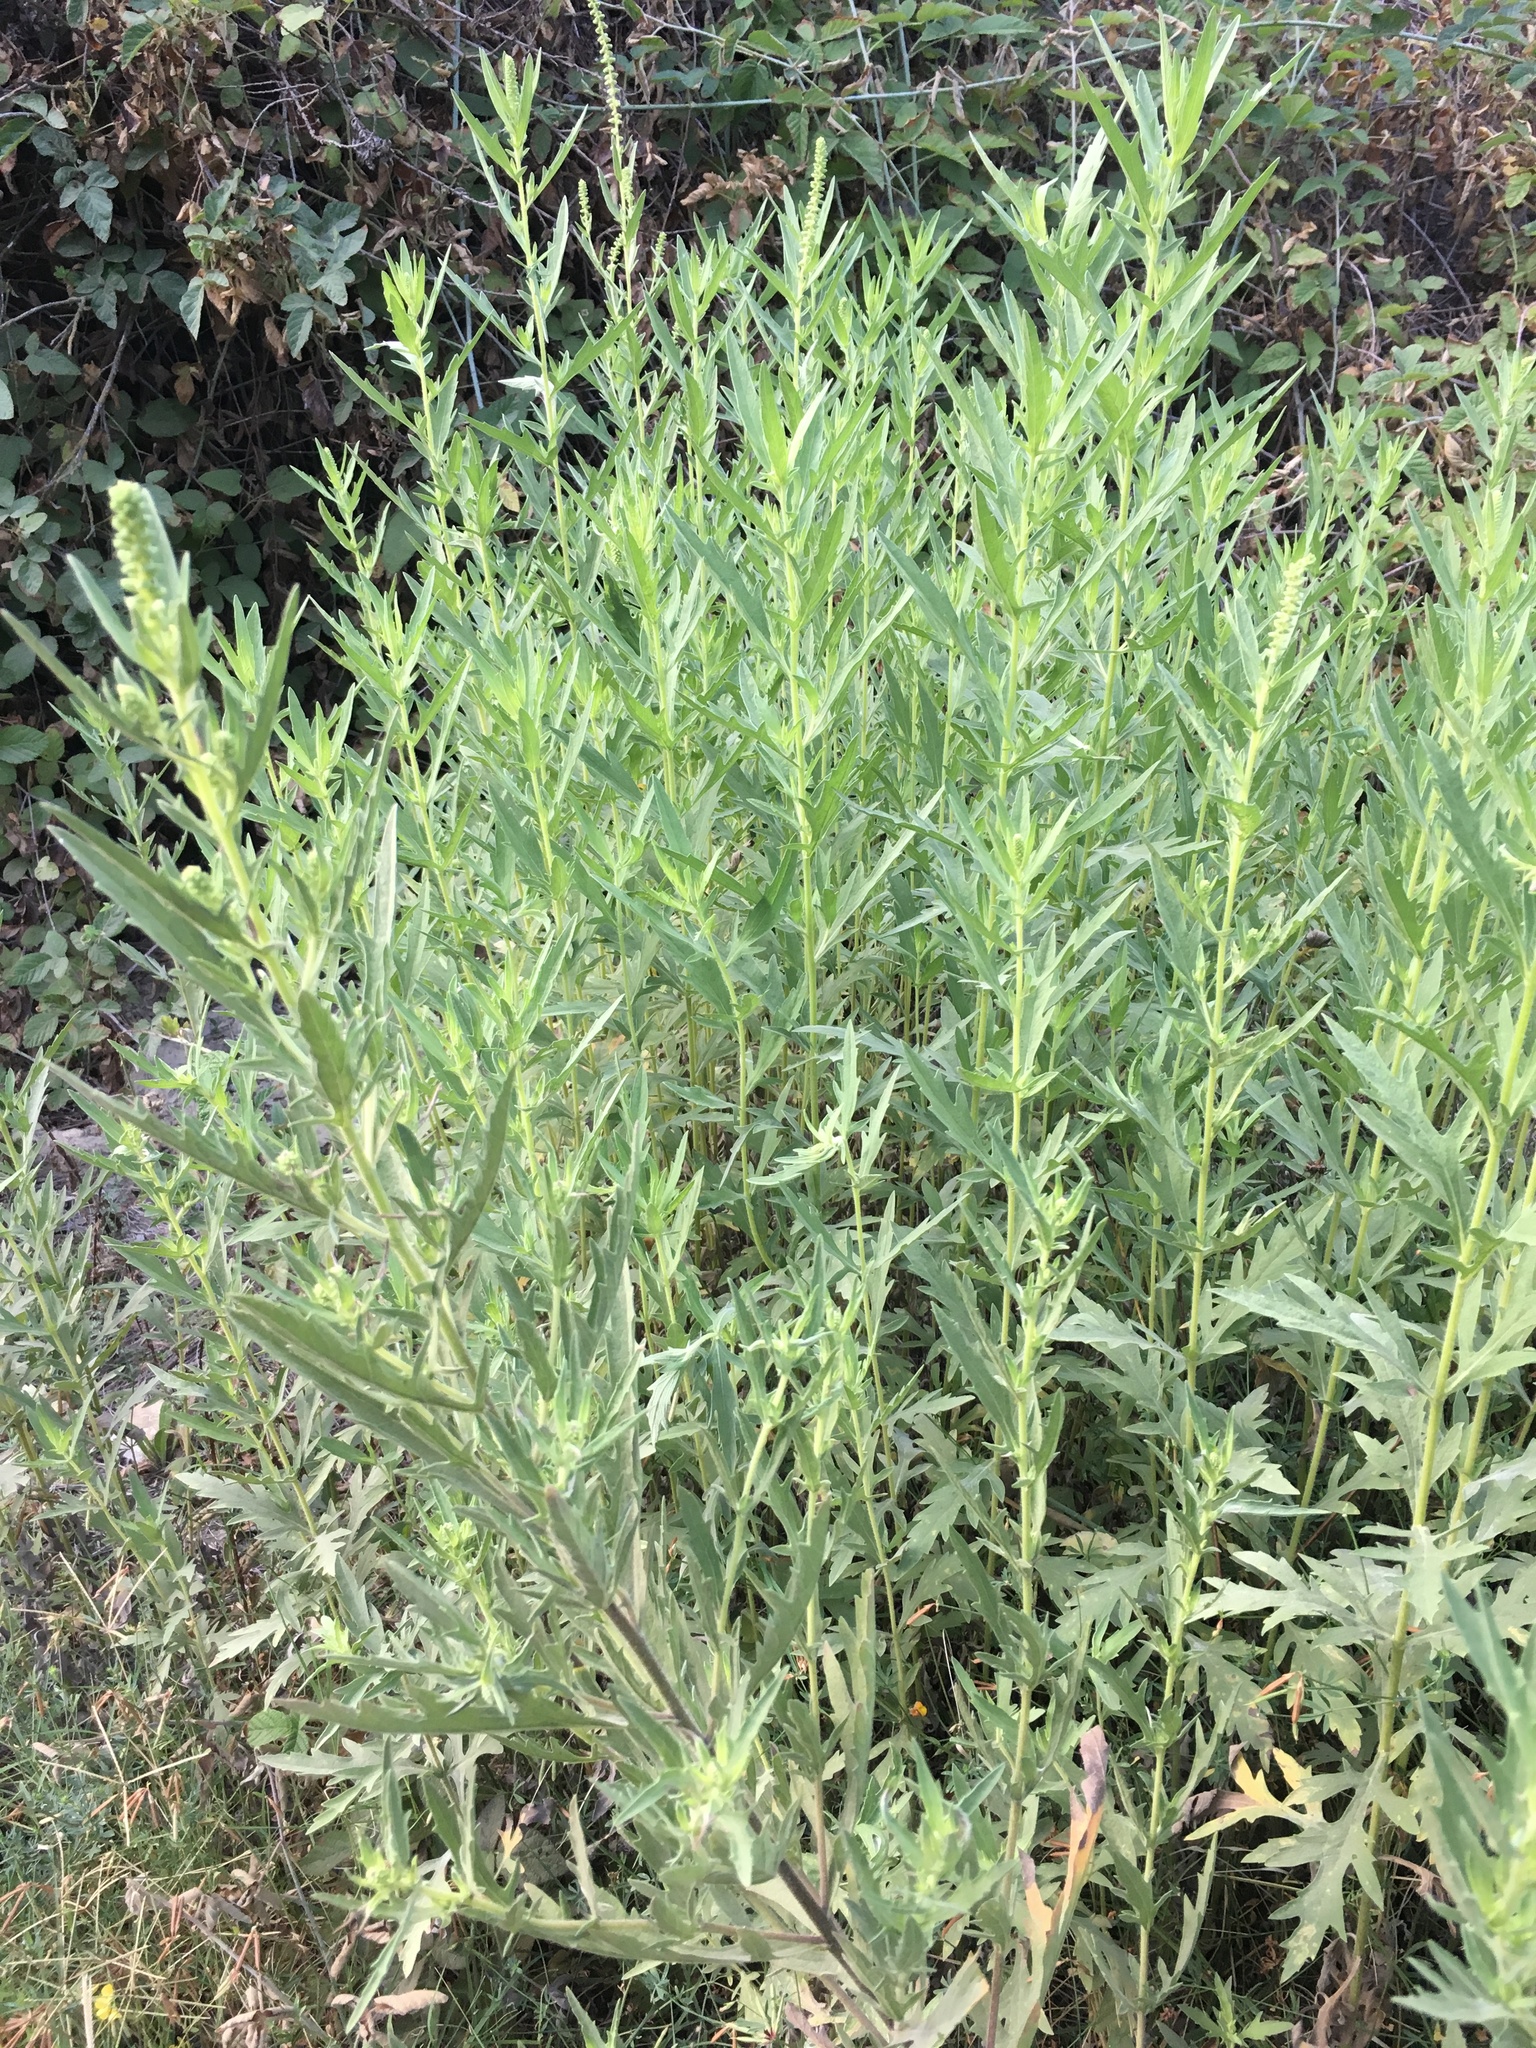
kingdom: Plantae
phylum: Tracheophyta
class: Magnoliopsida
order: Asterales
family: Asteraceae
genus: Ambrosia
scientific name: Ambrosia psilostachya
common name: Perennial ragweed
